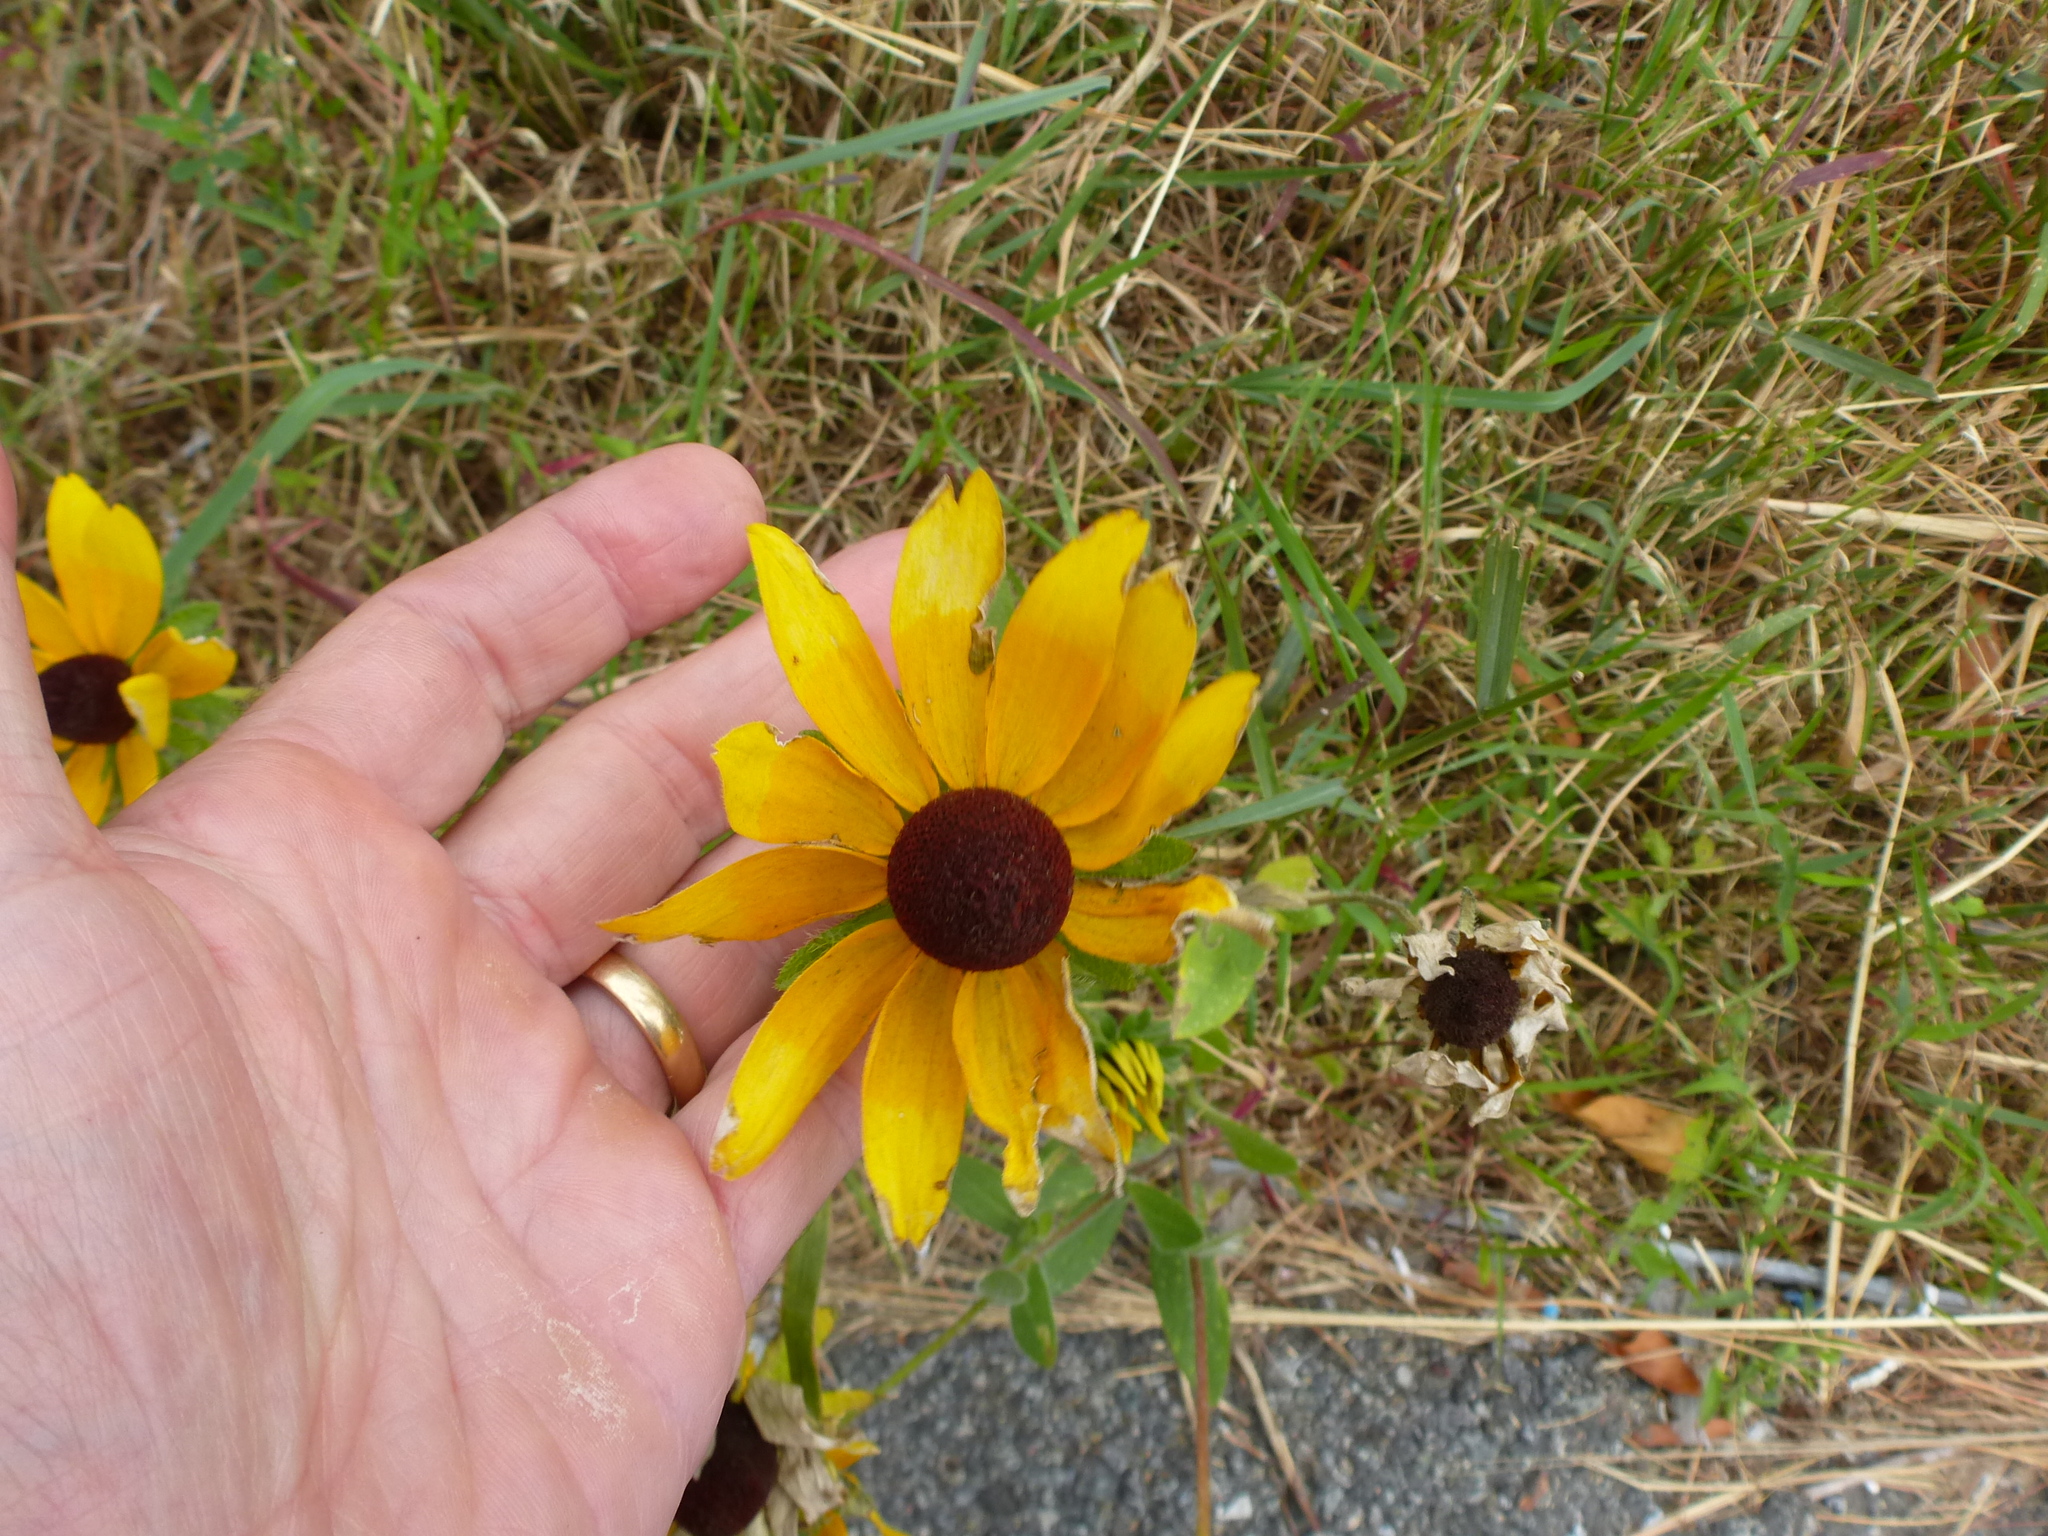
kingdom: Plantae
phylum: Tracheophyta
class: Magnoliopsida
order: Asterales
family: Asteraceae
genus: Rudbeckia
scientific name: Rudbeckia hirta
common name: Black-eyed-susan
